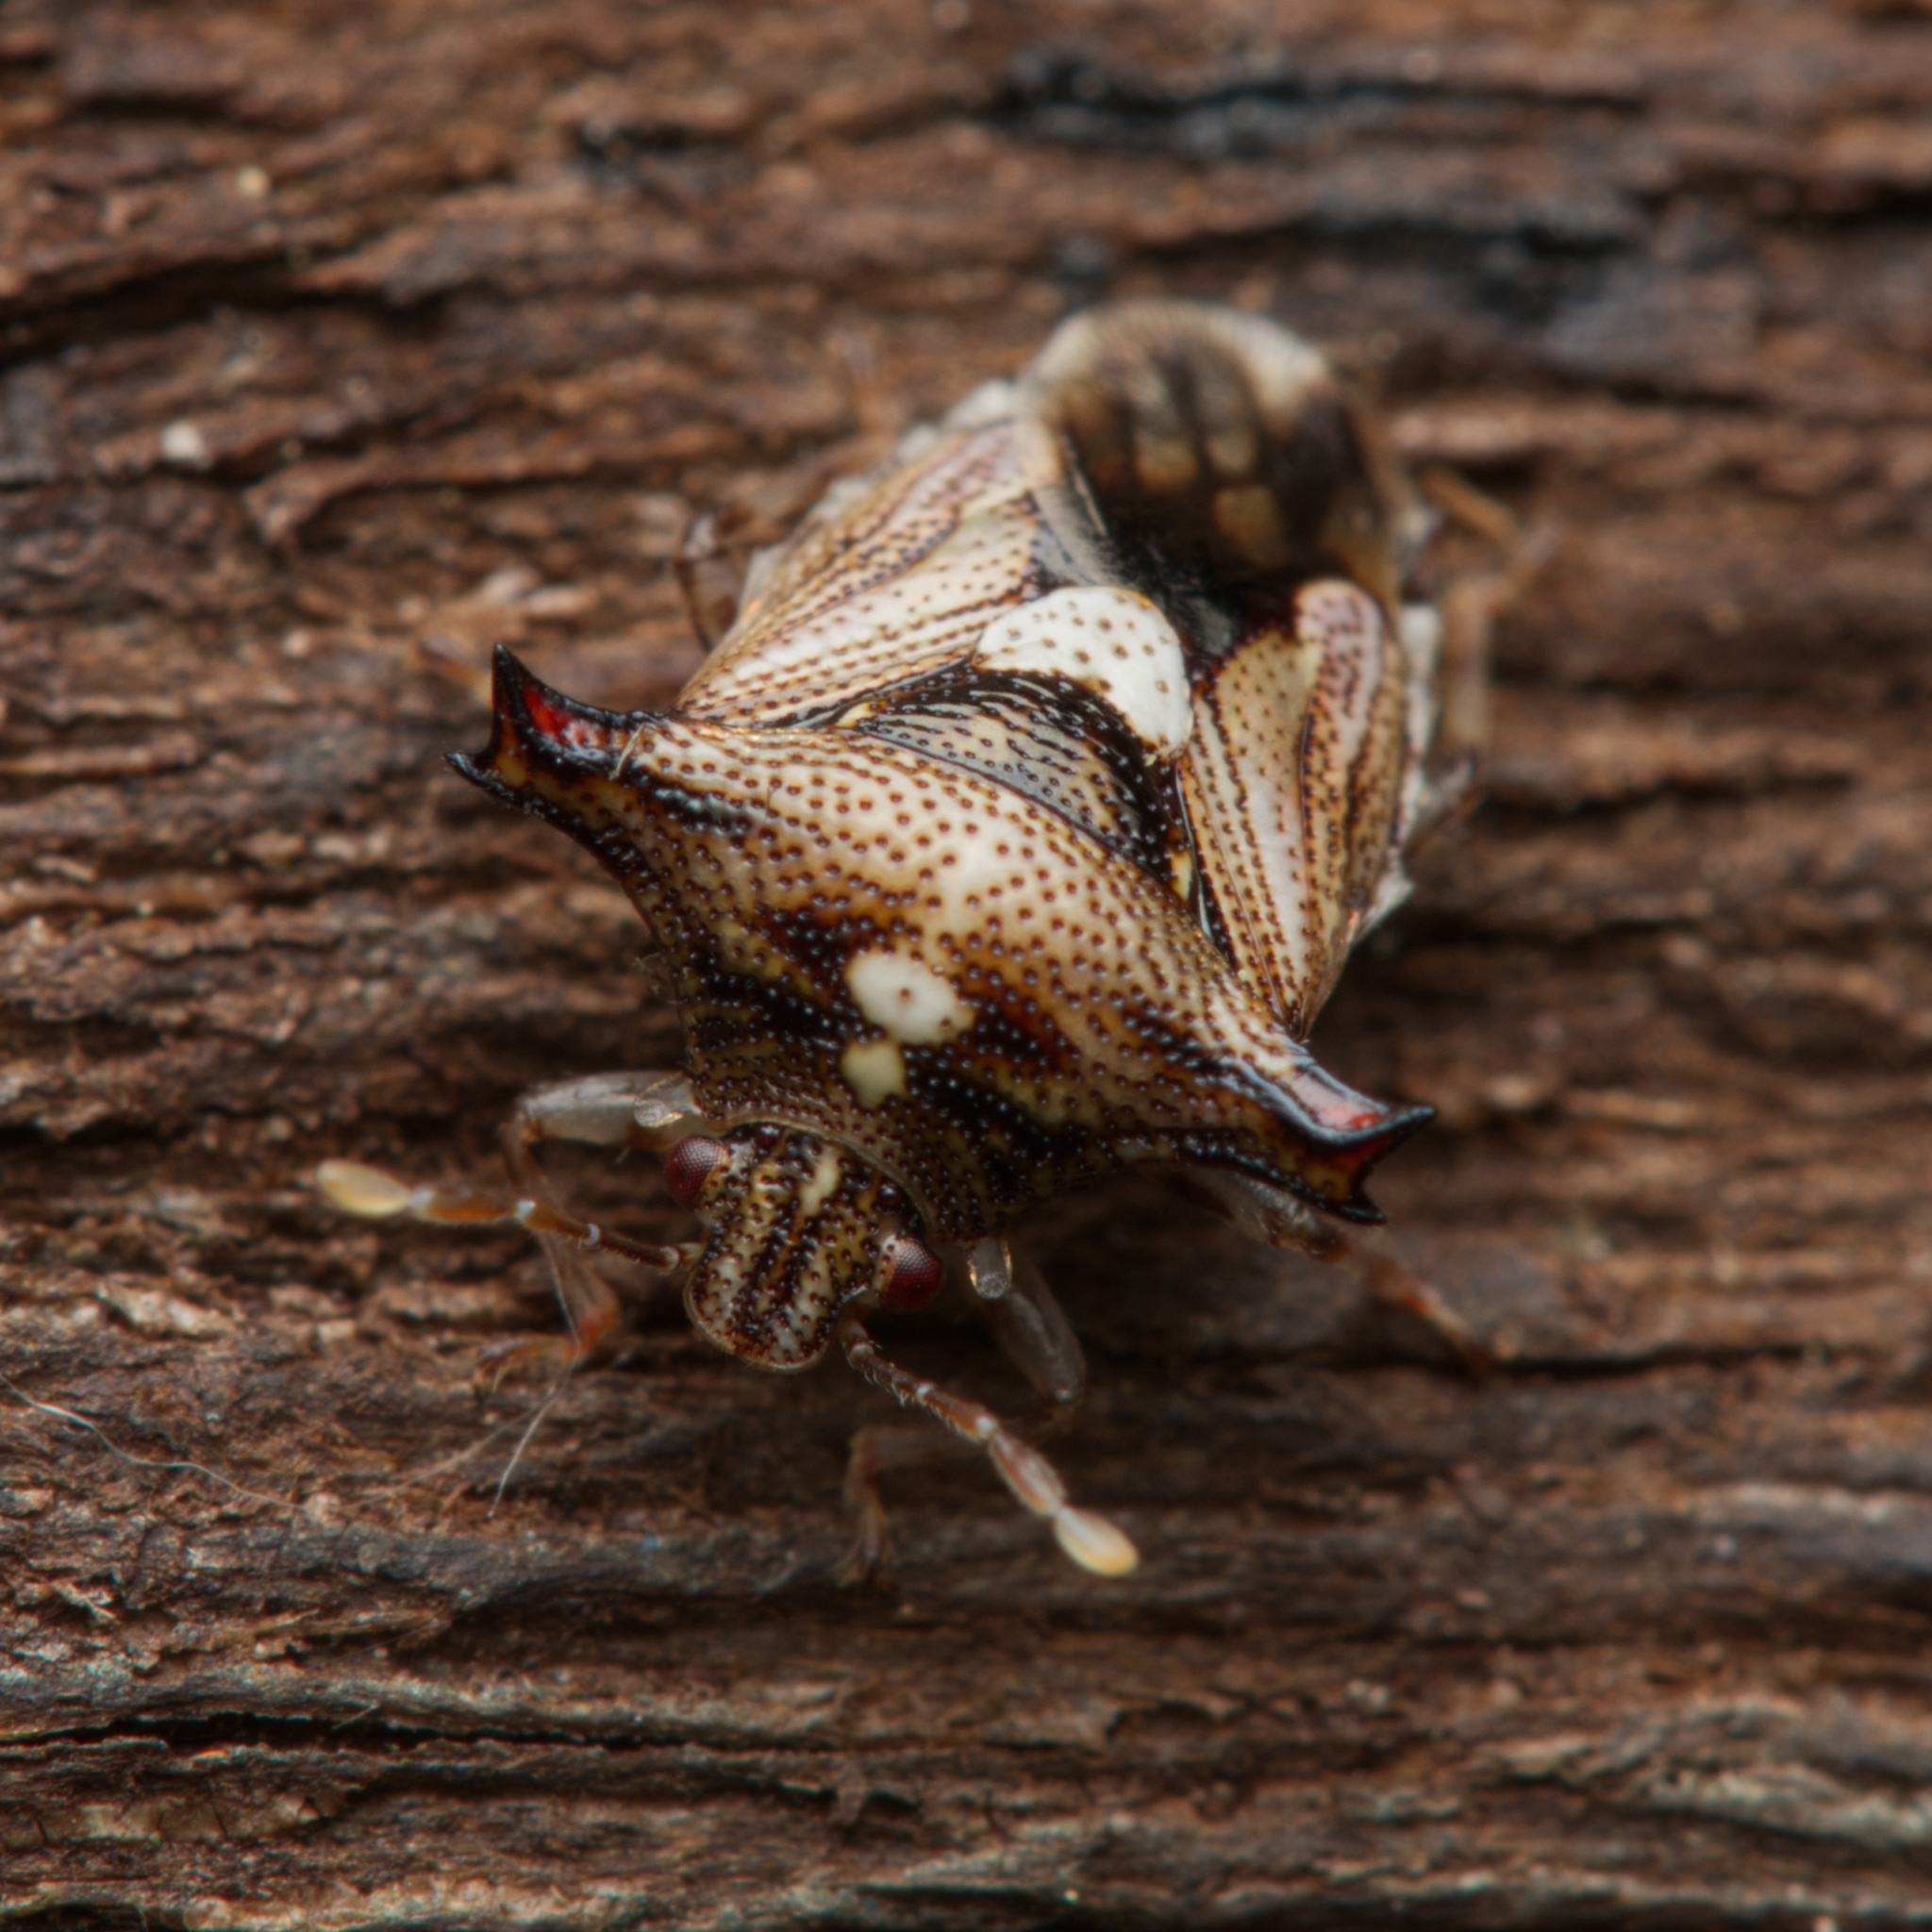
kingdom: Animalia
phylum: Arthropoda
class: Insecta
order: Hemiptera
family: Acanthosomatidae
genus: Panaetius
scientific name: Panaetius lobulatus
